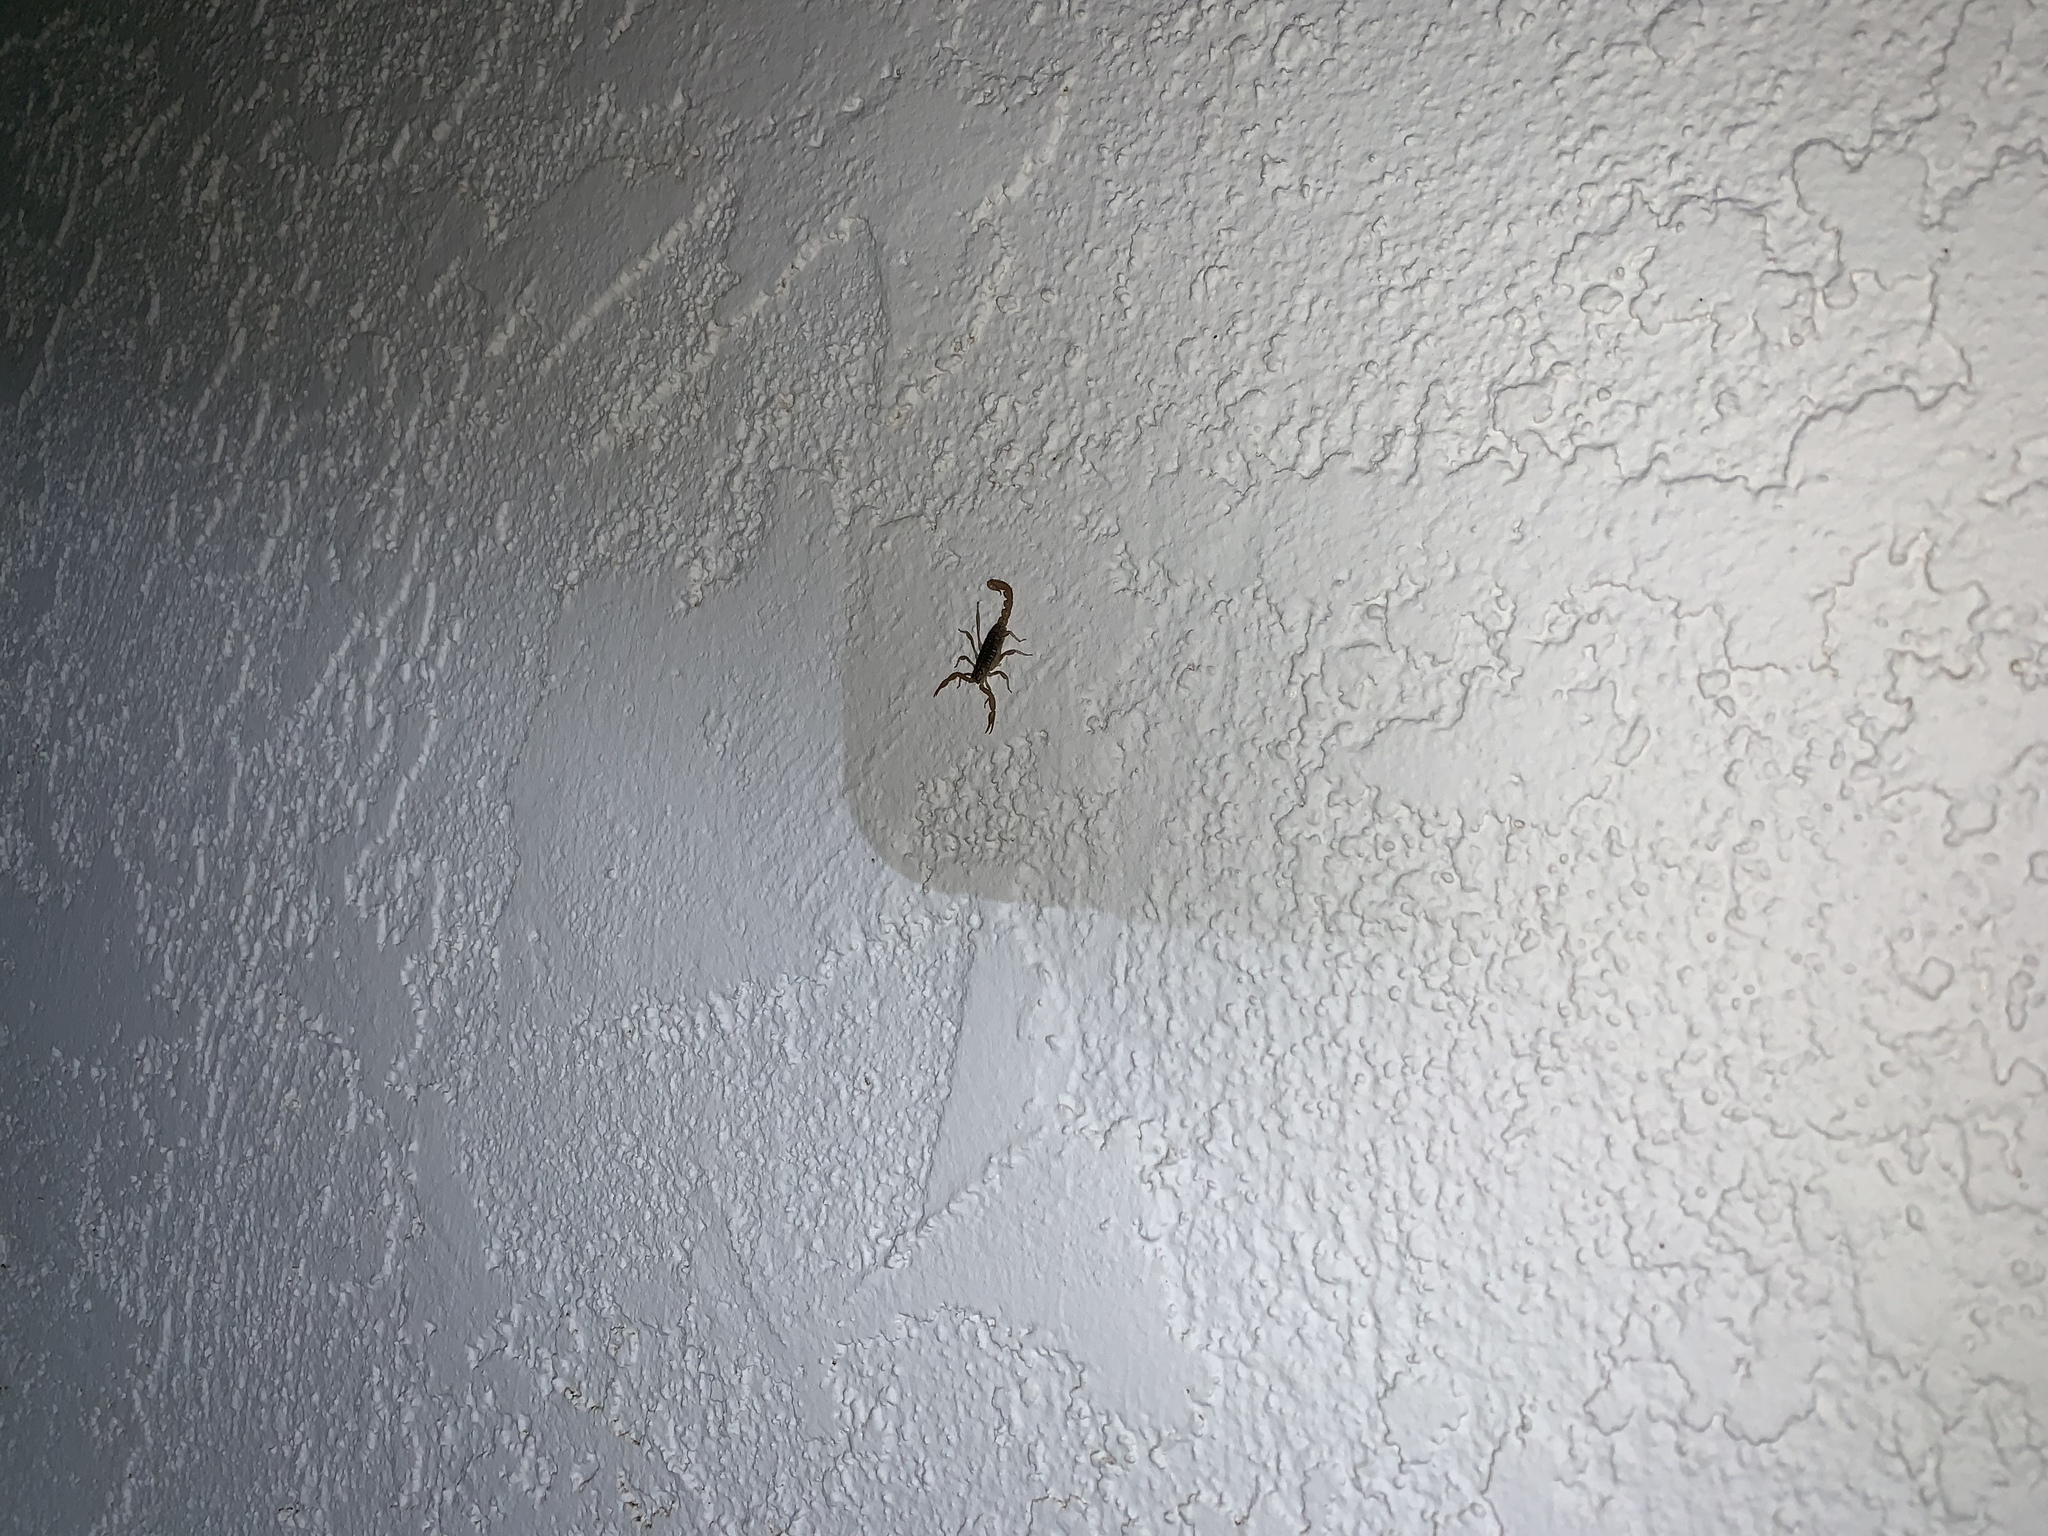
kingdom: Animalia
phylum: Arthropoda
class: Arachnida
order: Scorpiones
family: Vaejovidae
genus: Paravaejovis
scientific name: Paravaejovis spinigerus
